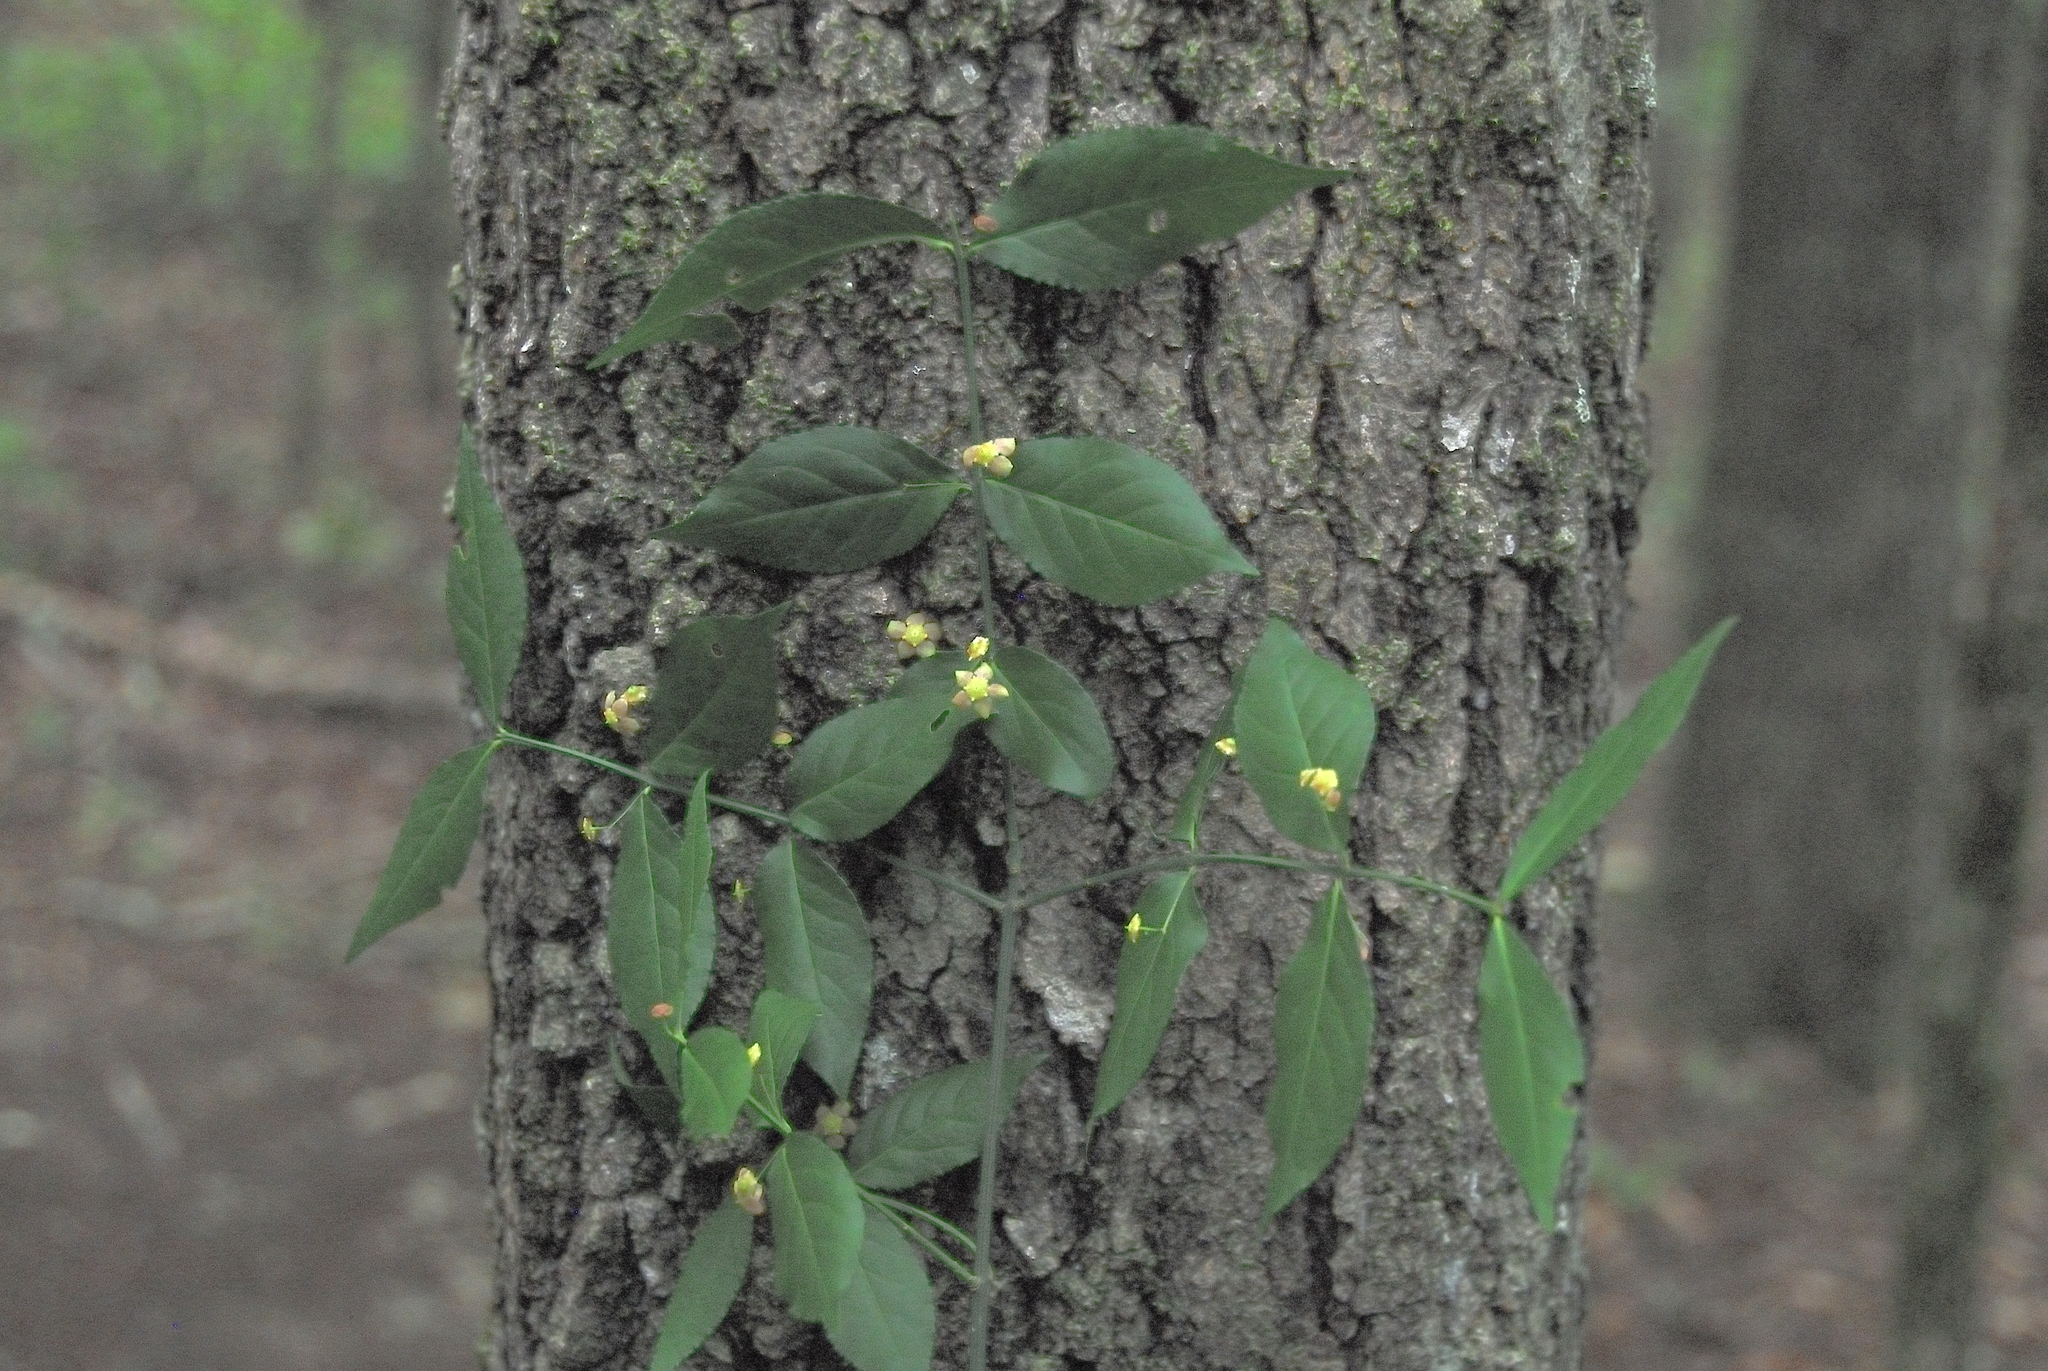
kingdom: Plantae
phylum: Tracheophyta
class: Magnoliopsida
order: Celastrales
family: Celastraceae
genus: Euonymus
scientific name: Euonymus americanus
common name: Bursting-heart
